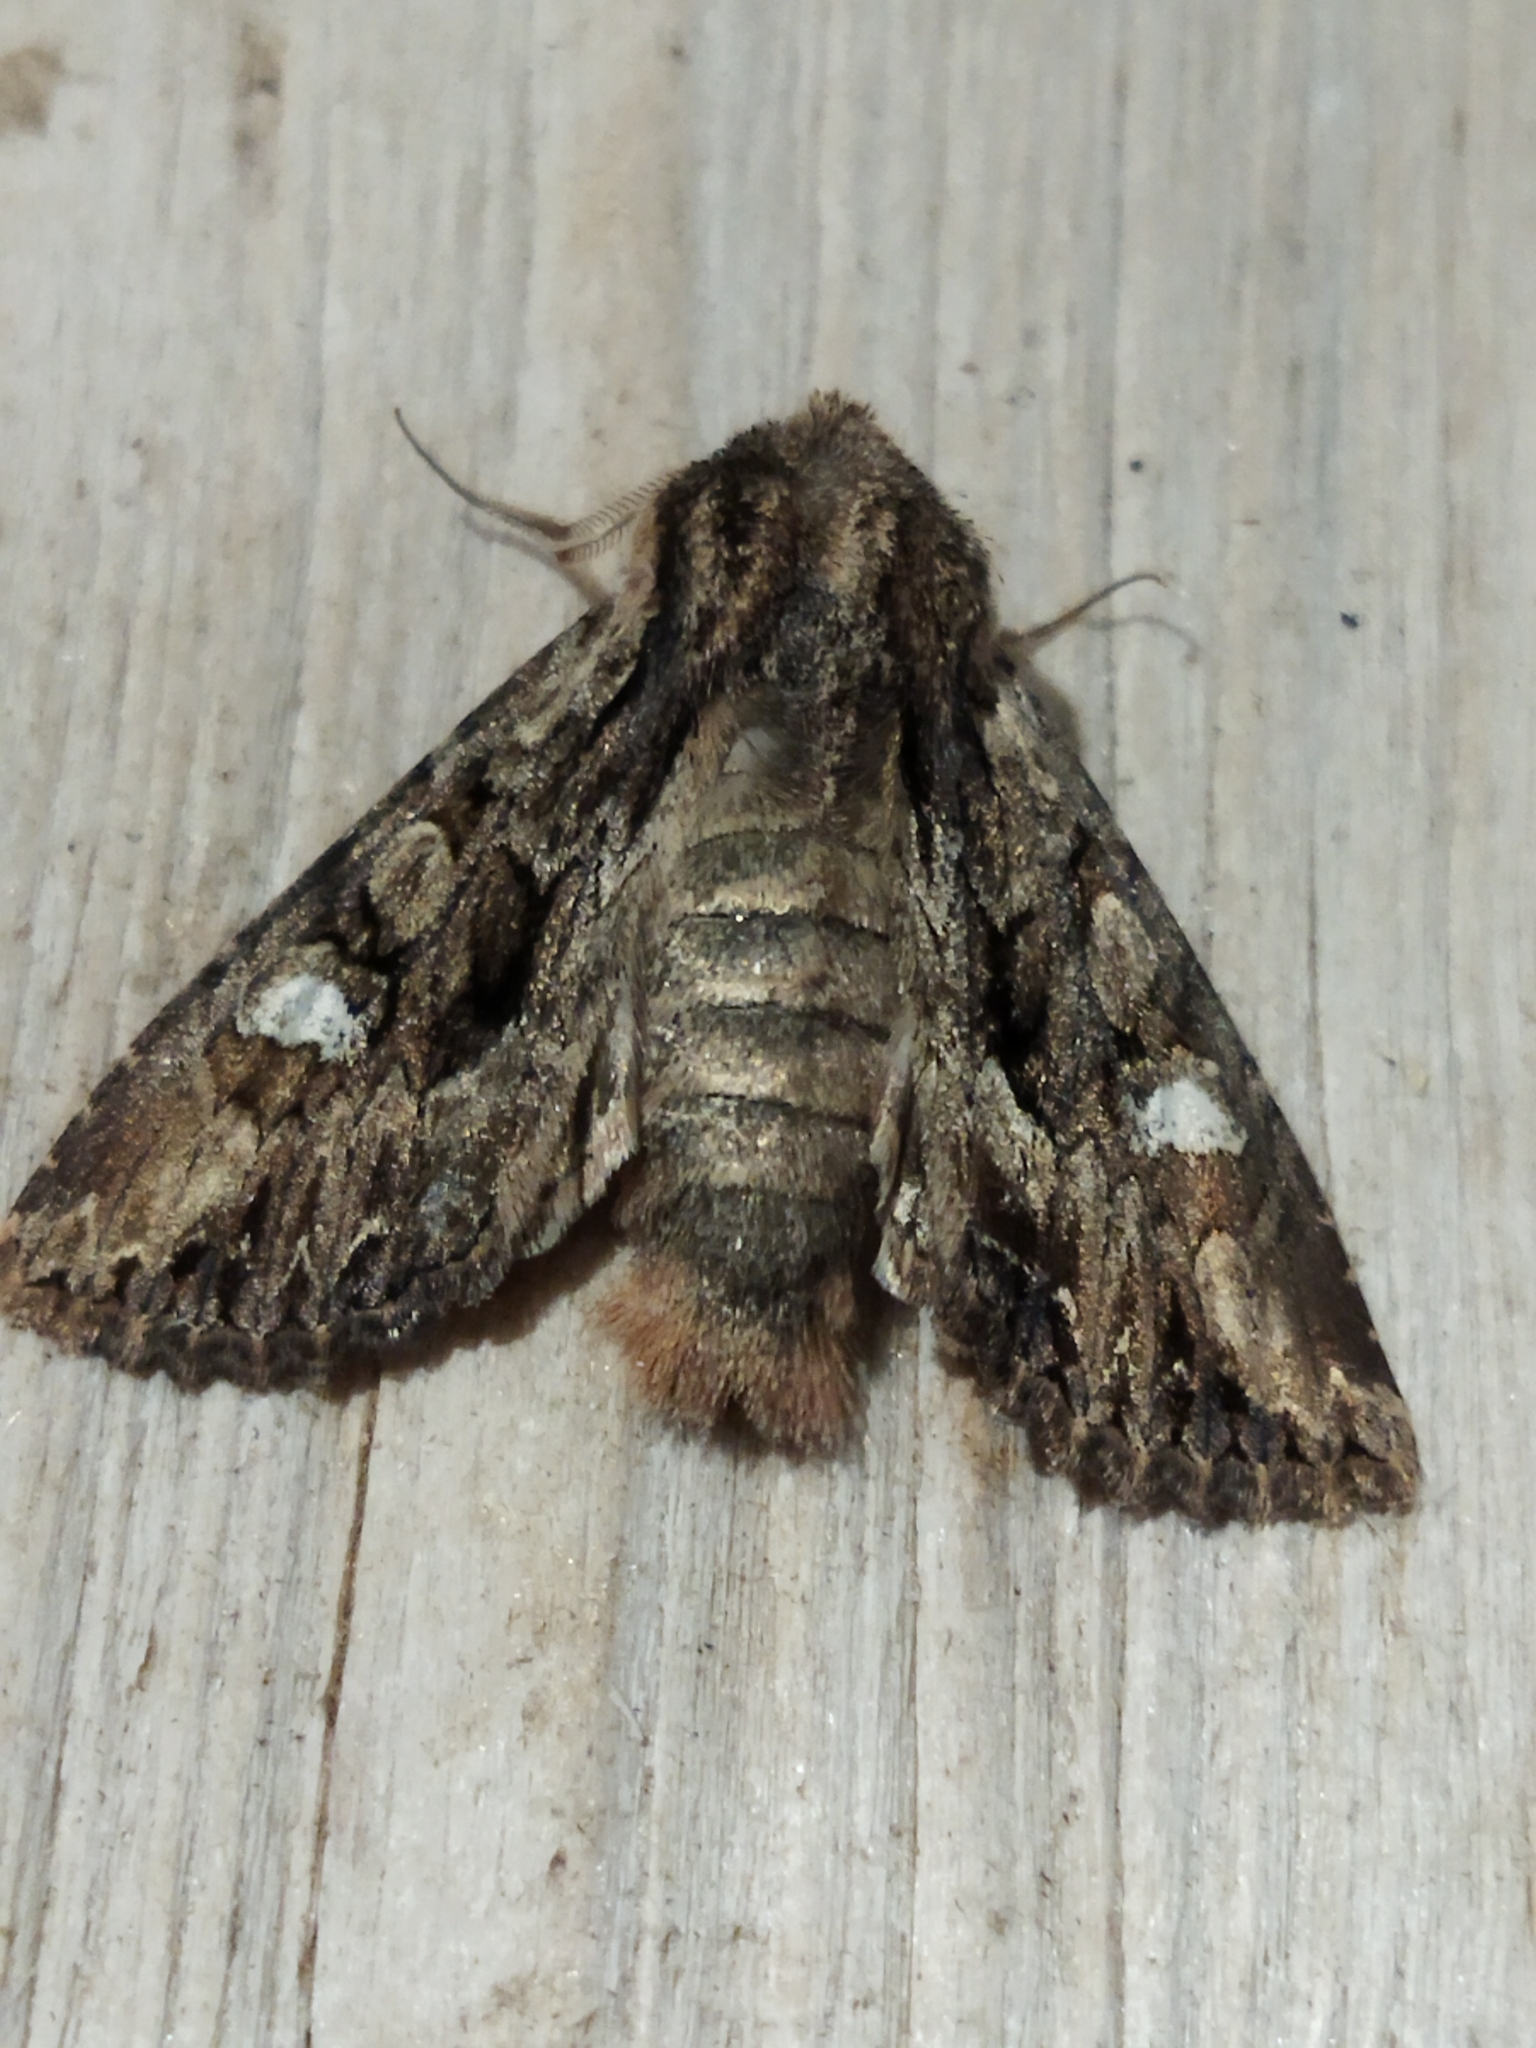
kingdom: Animalia
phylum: Arthropoda
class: Insecta
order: Lepidoptera
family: Noctuidae
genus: Polymixis
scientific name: Polymixis trisignata
